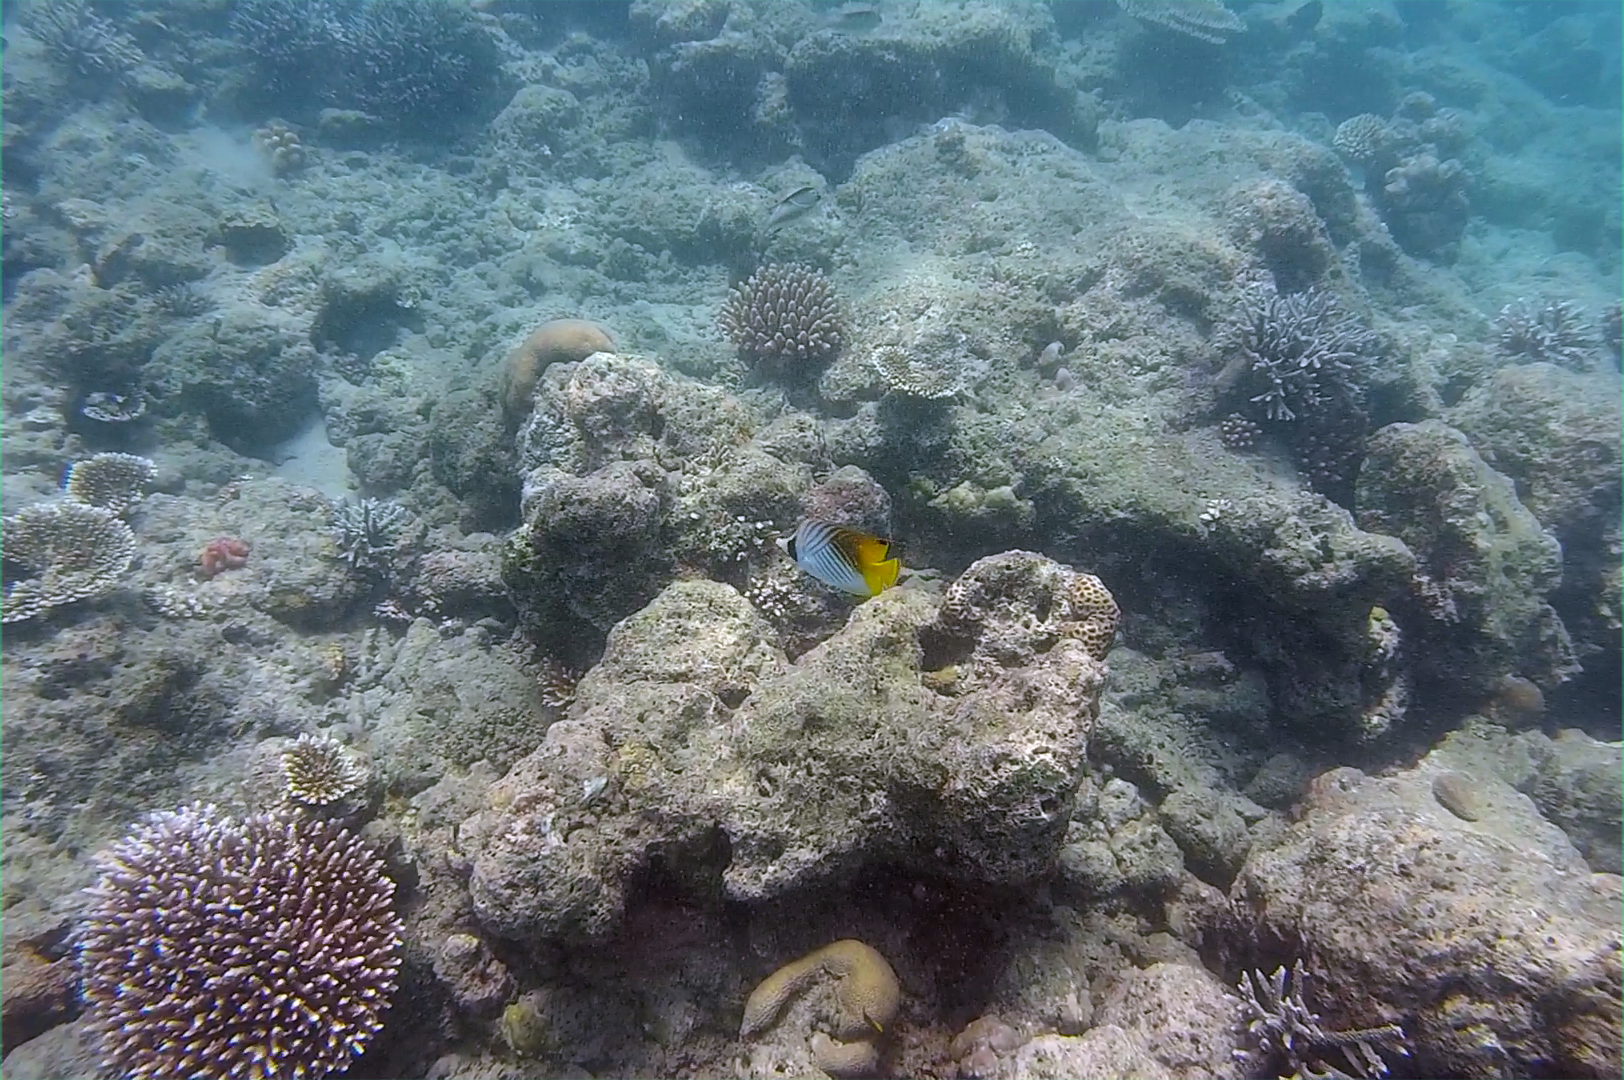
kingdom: Animalia
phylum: Chordata
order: Perciformes
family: Chaetodontidae
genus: Chaetodon
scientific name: Chaetodon auriga
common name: Threadfin butterflyfish
